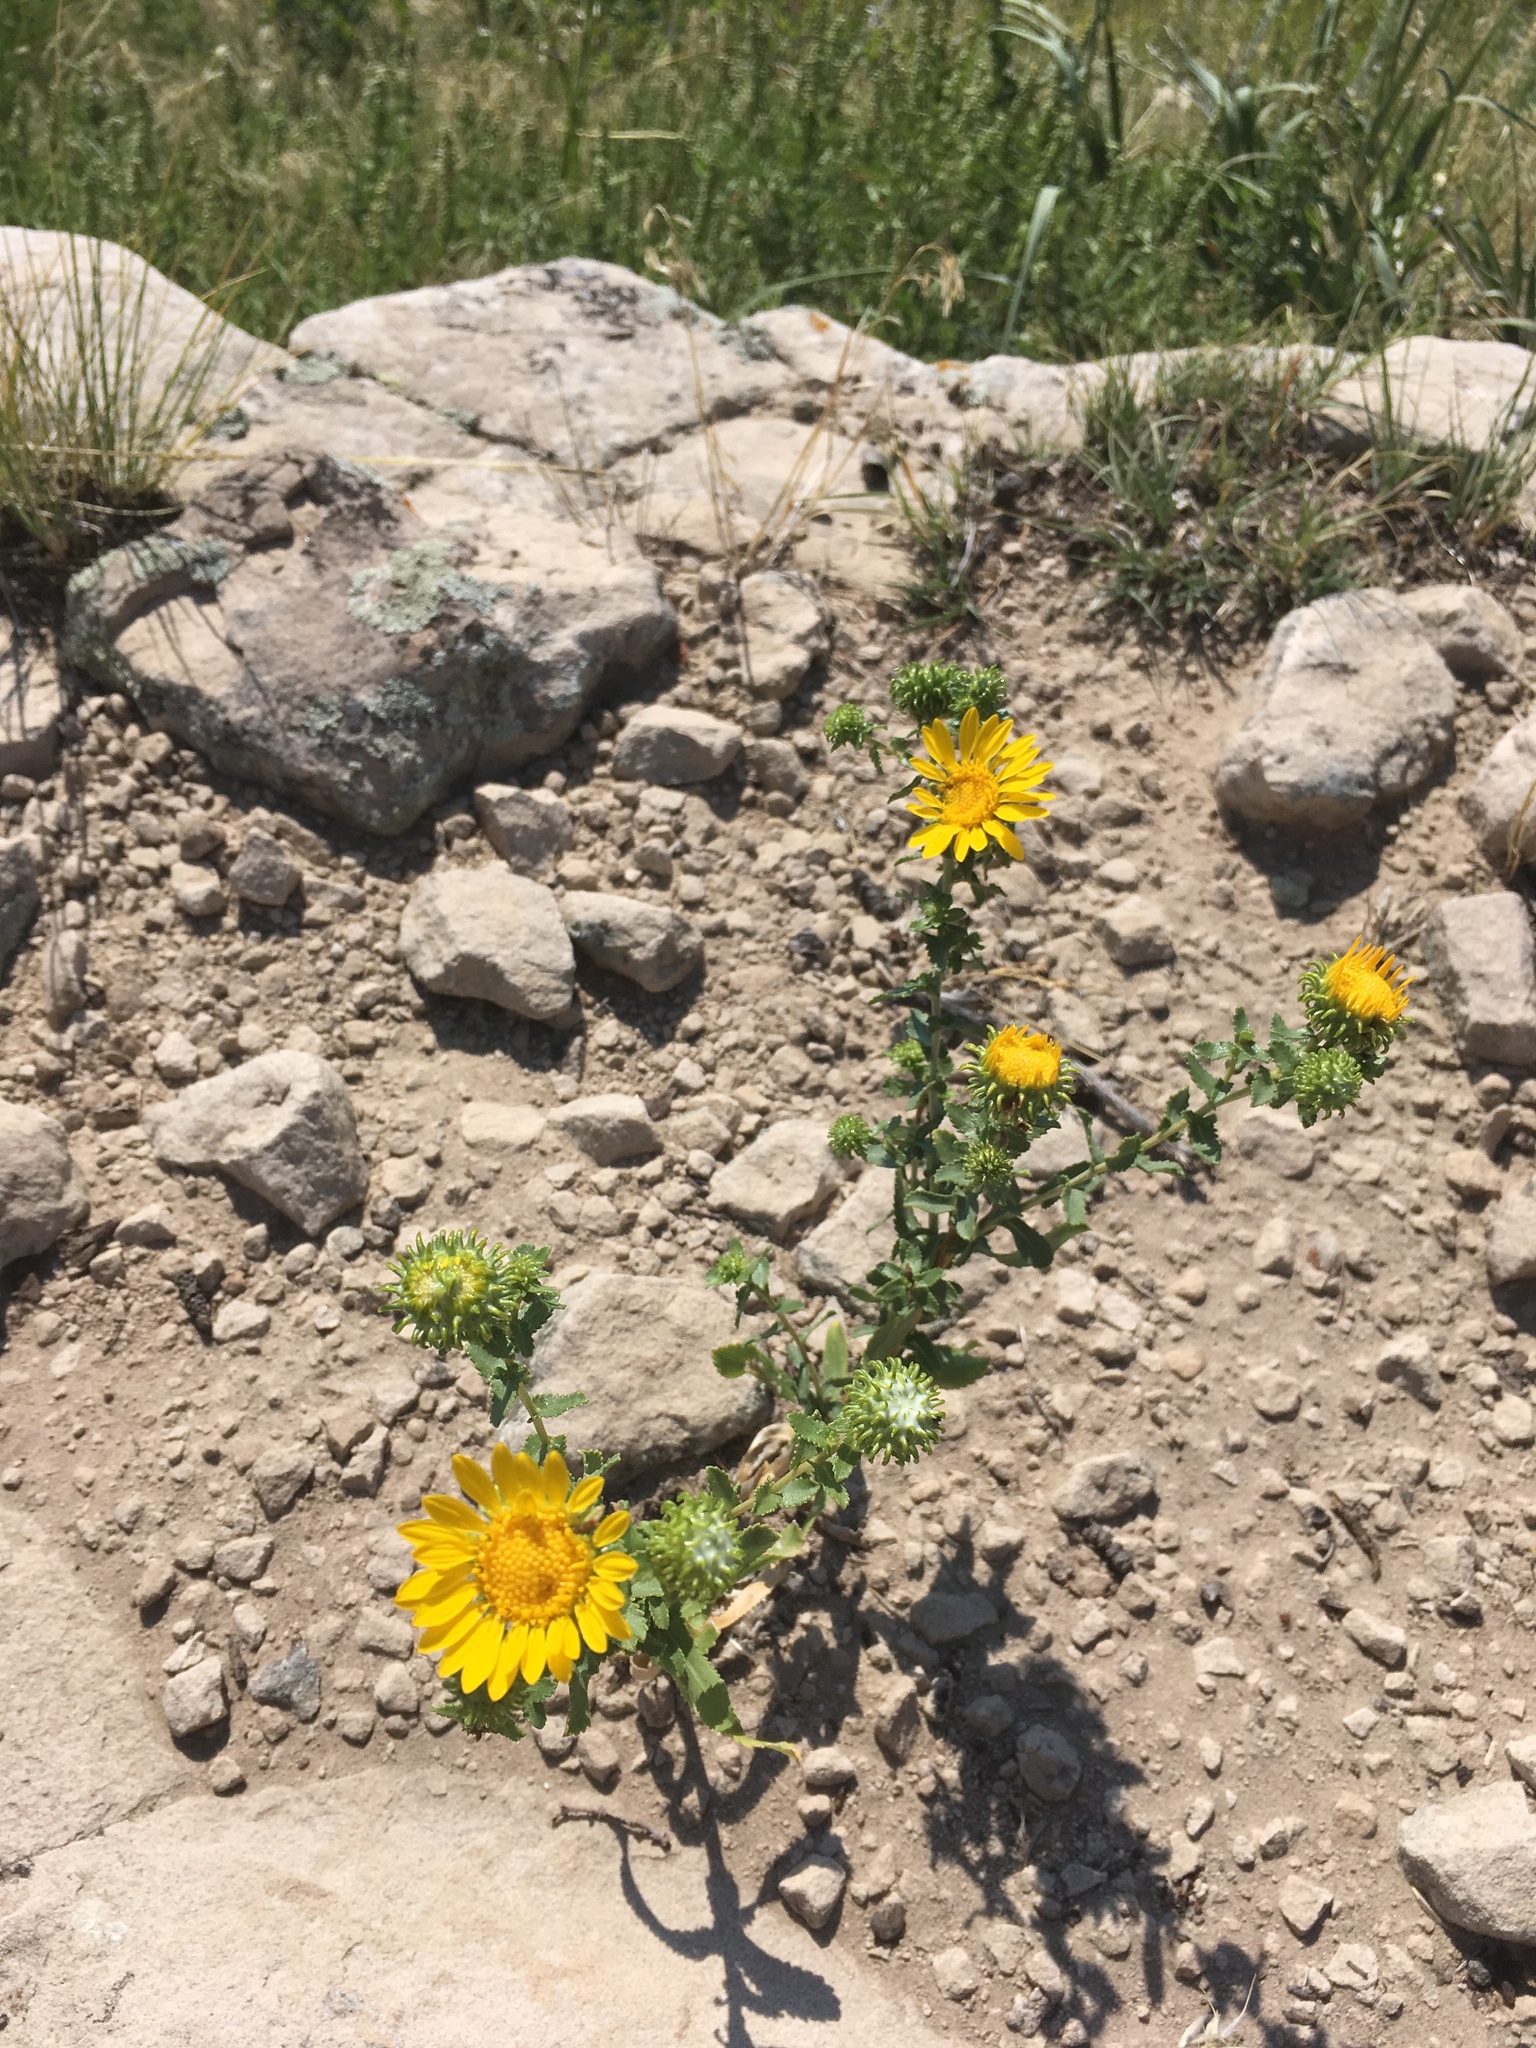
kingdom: Plantae
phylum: Tracheophyta
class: Magnoliopsida
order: Asterales
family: Asteraceae
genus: Grindelia
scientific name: Grindelia squarrosa
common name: Curly-cup gumweed
